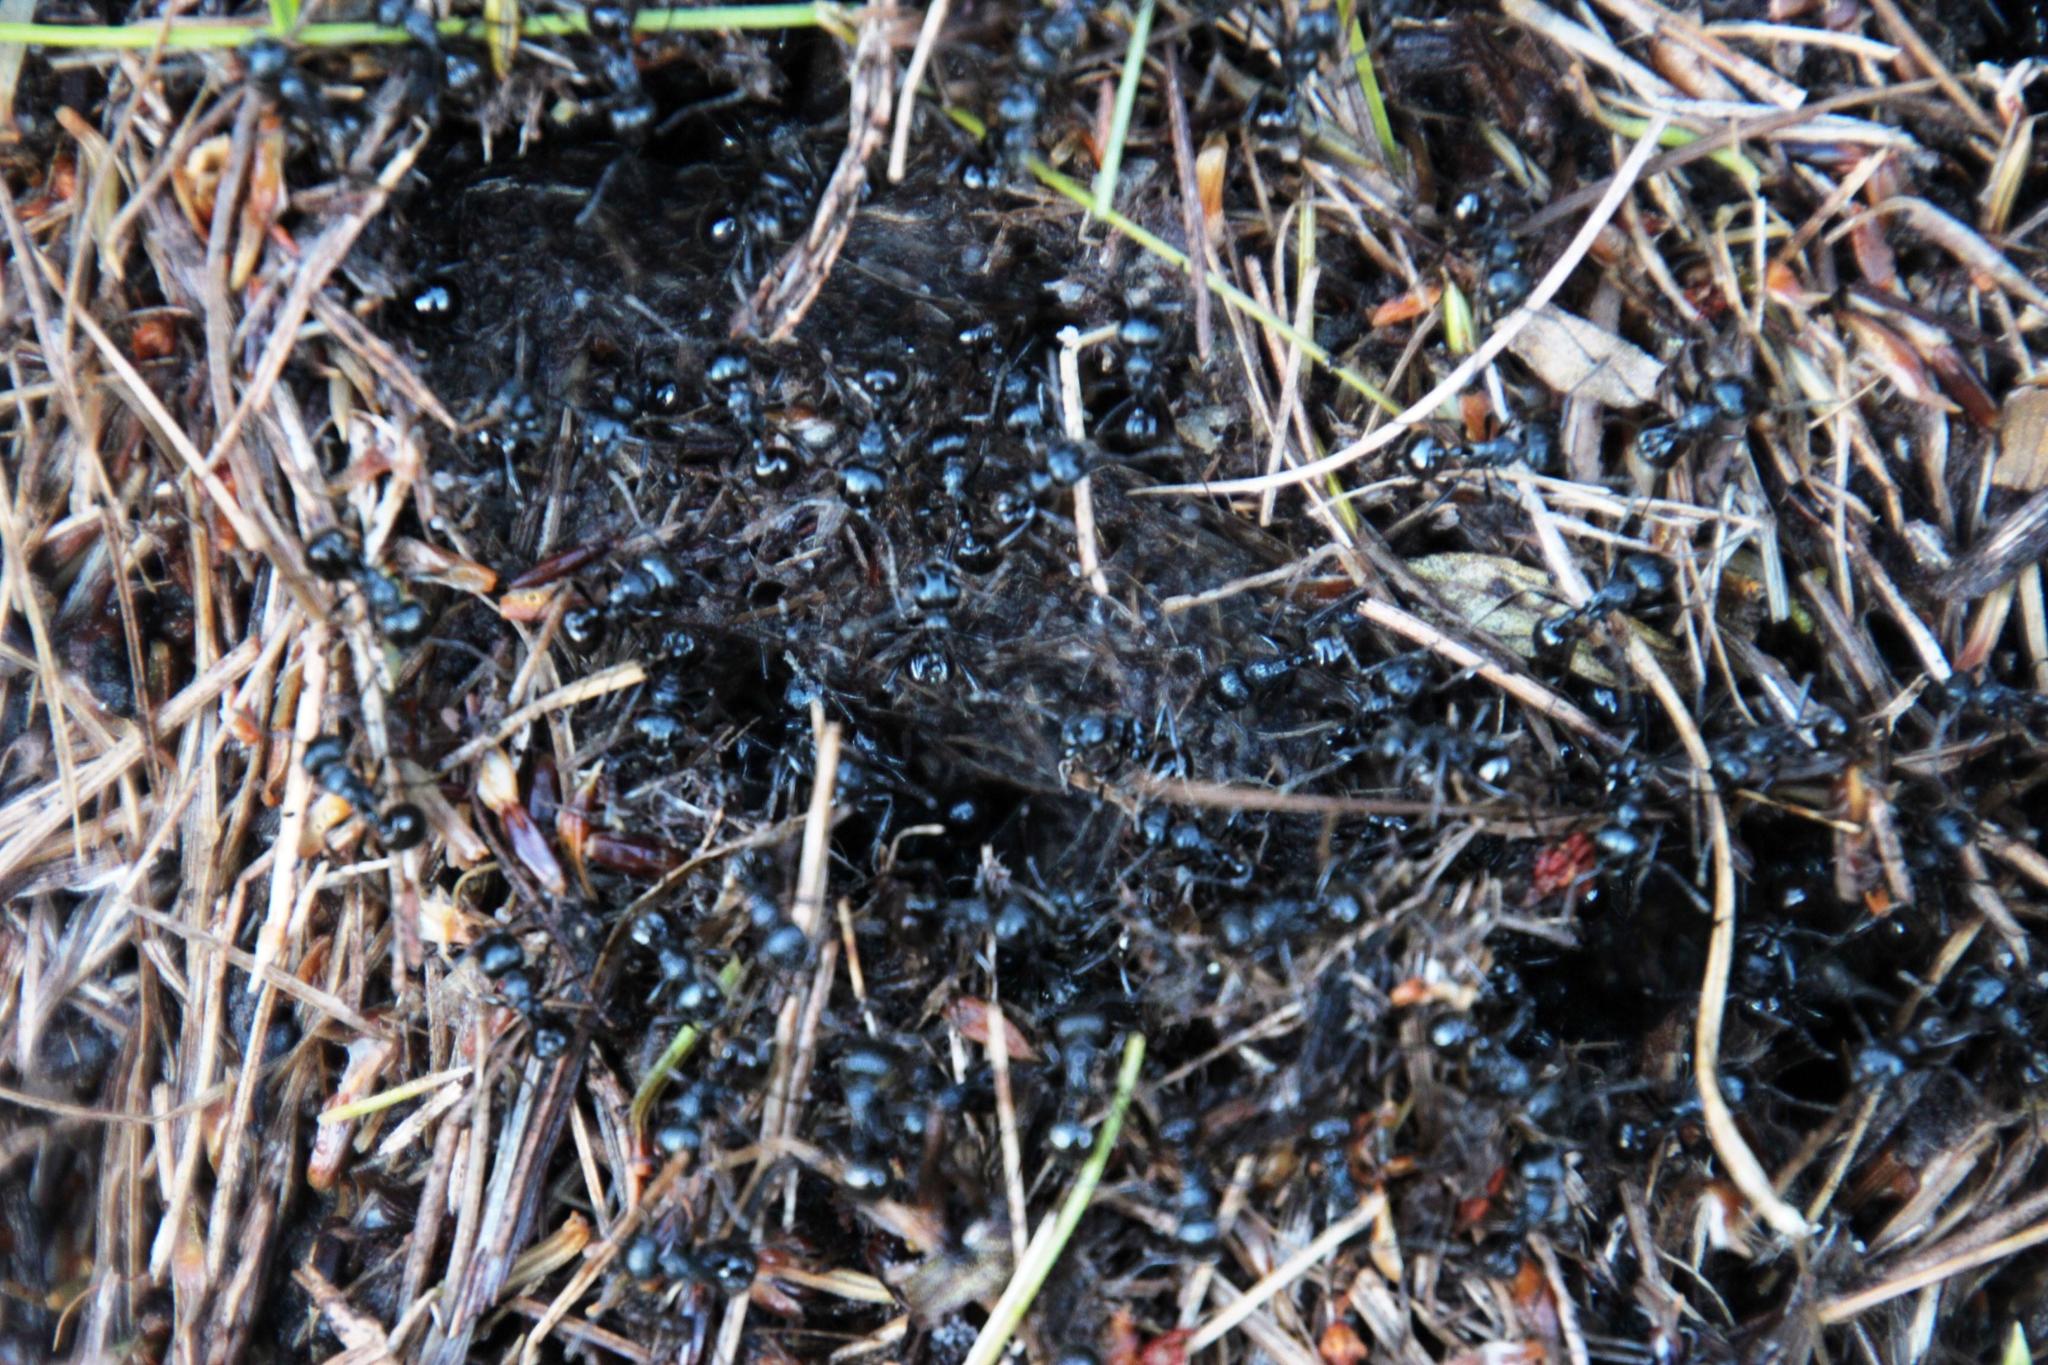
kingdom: Animalia
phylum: Arthropoda
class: Insecta
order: Hymenoptera
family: Formicidae
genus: Myrmicaria
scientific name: Myrmicaria nigra
